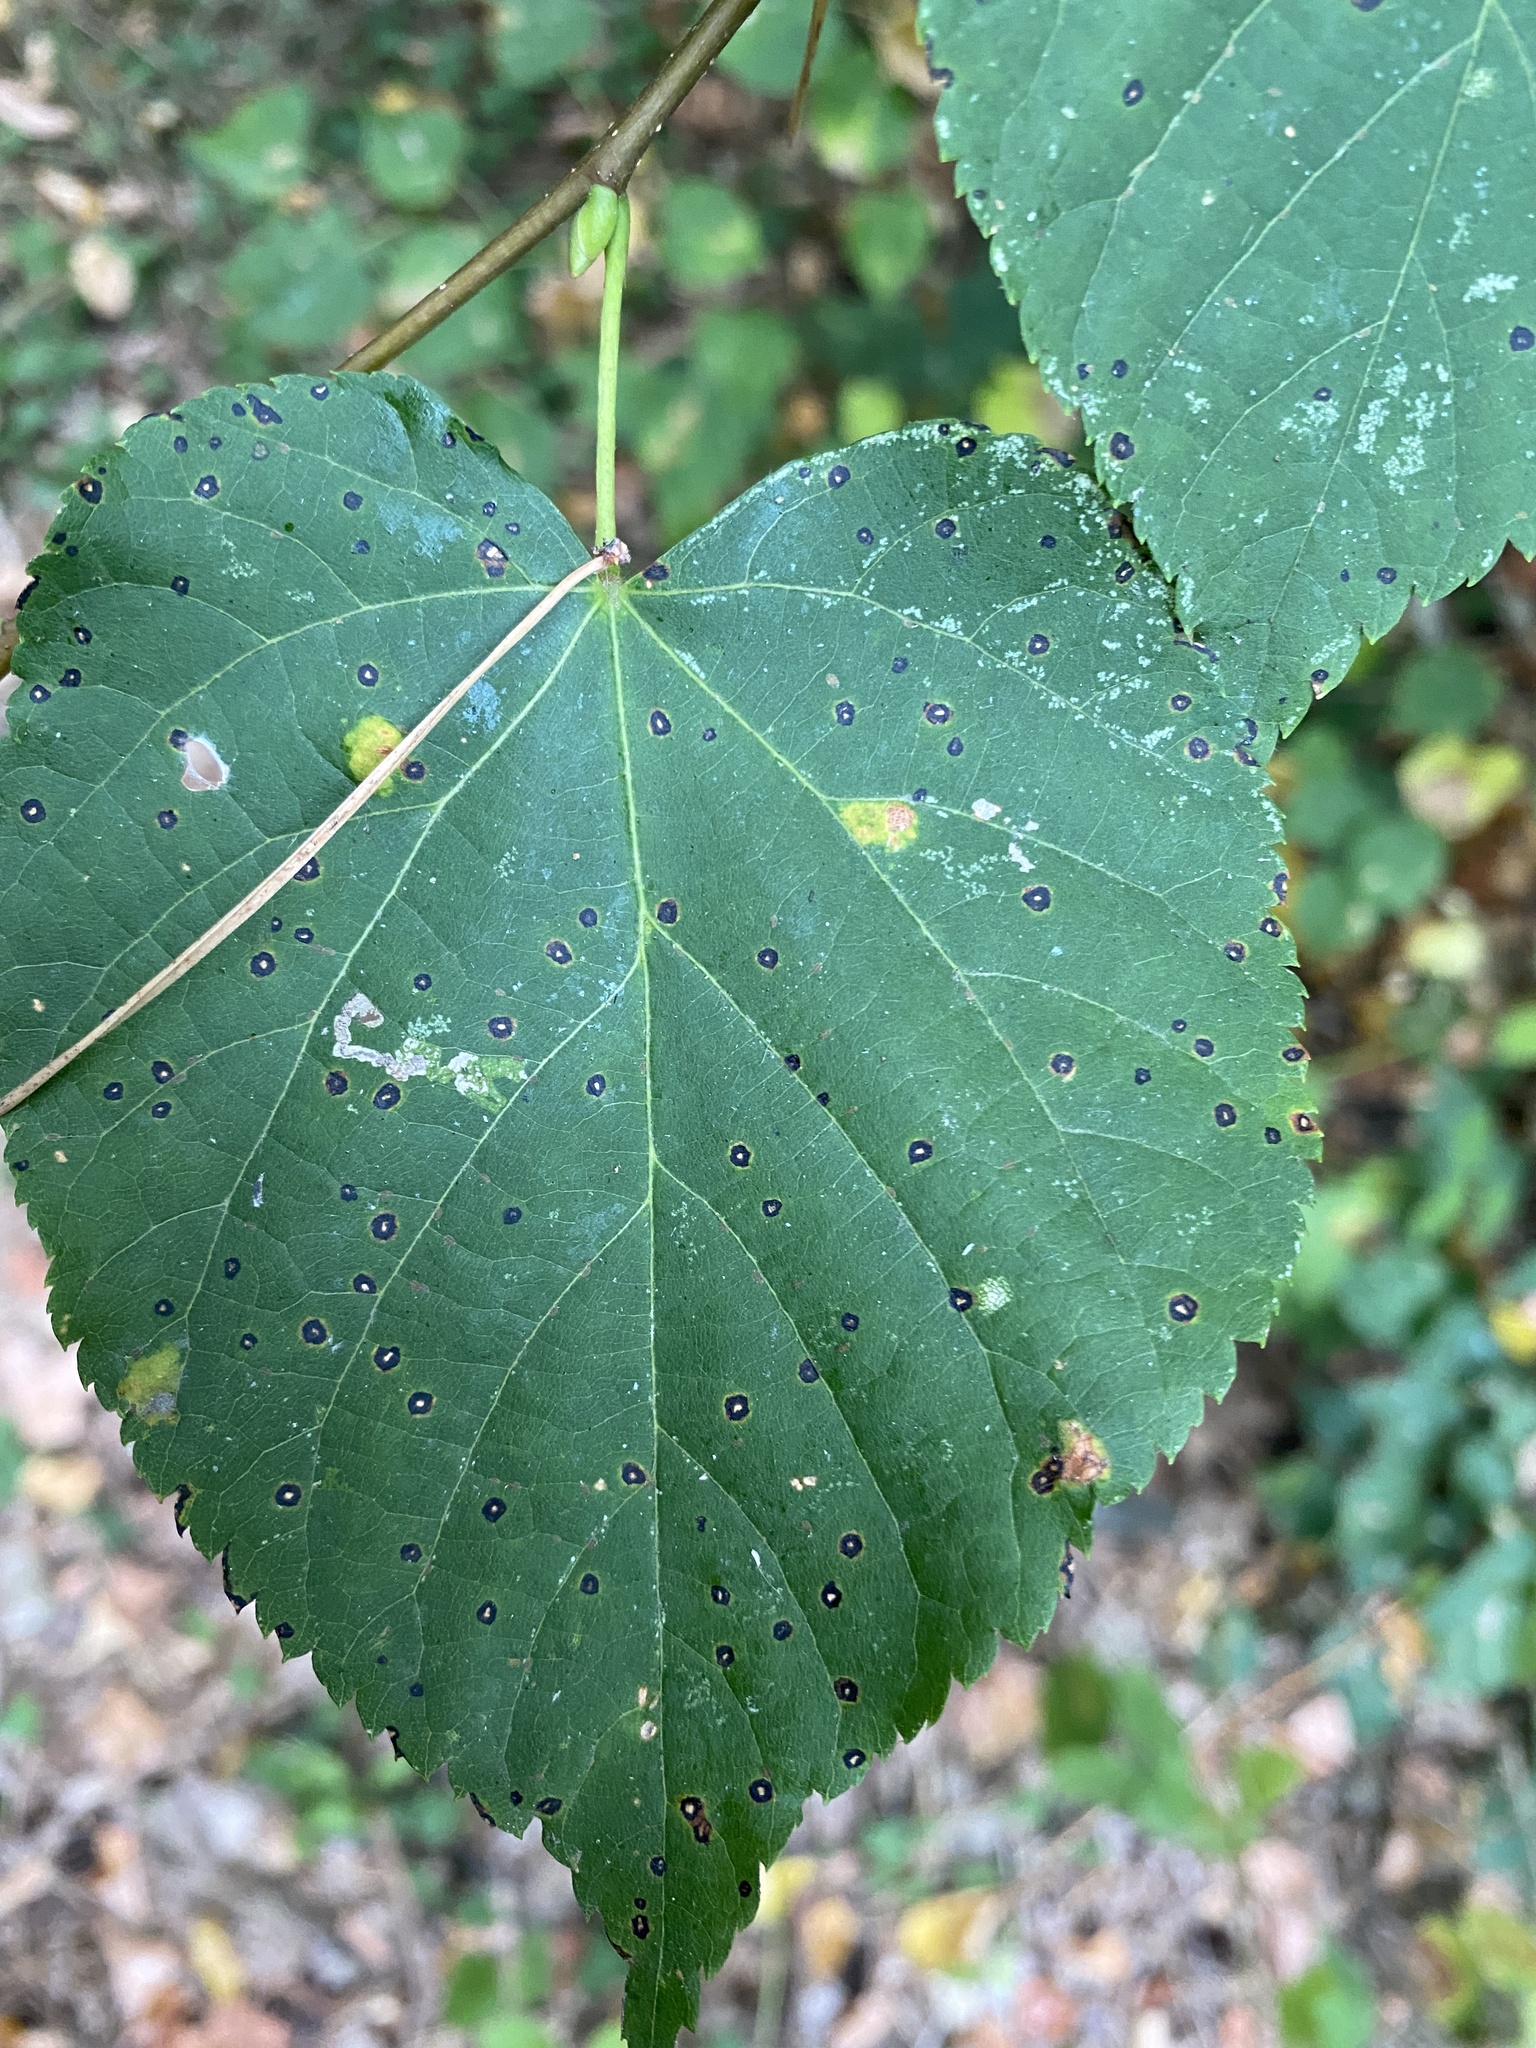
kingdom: Fungi
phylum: Ascomycota
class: Dothideomycetes
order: Mycosphaerellales
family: Mycosphaerellaceae
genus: Paracercosporidium
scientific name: Paracercosporidium microsorum
